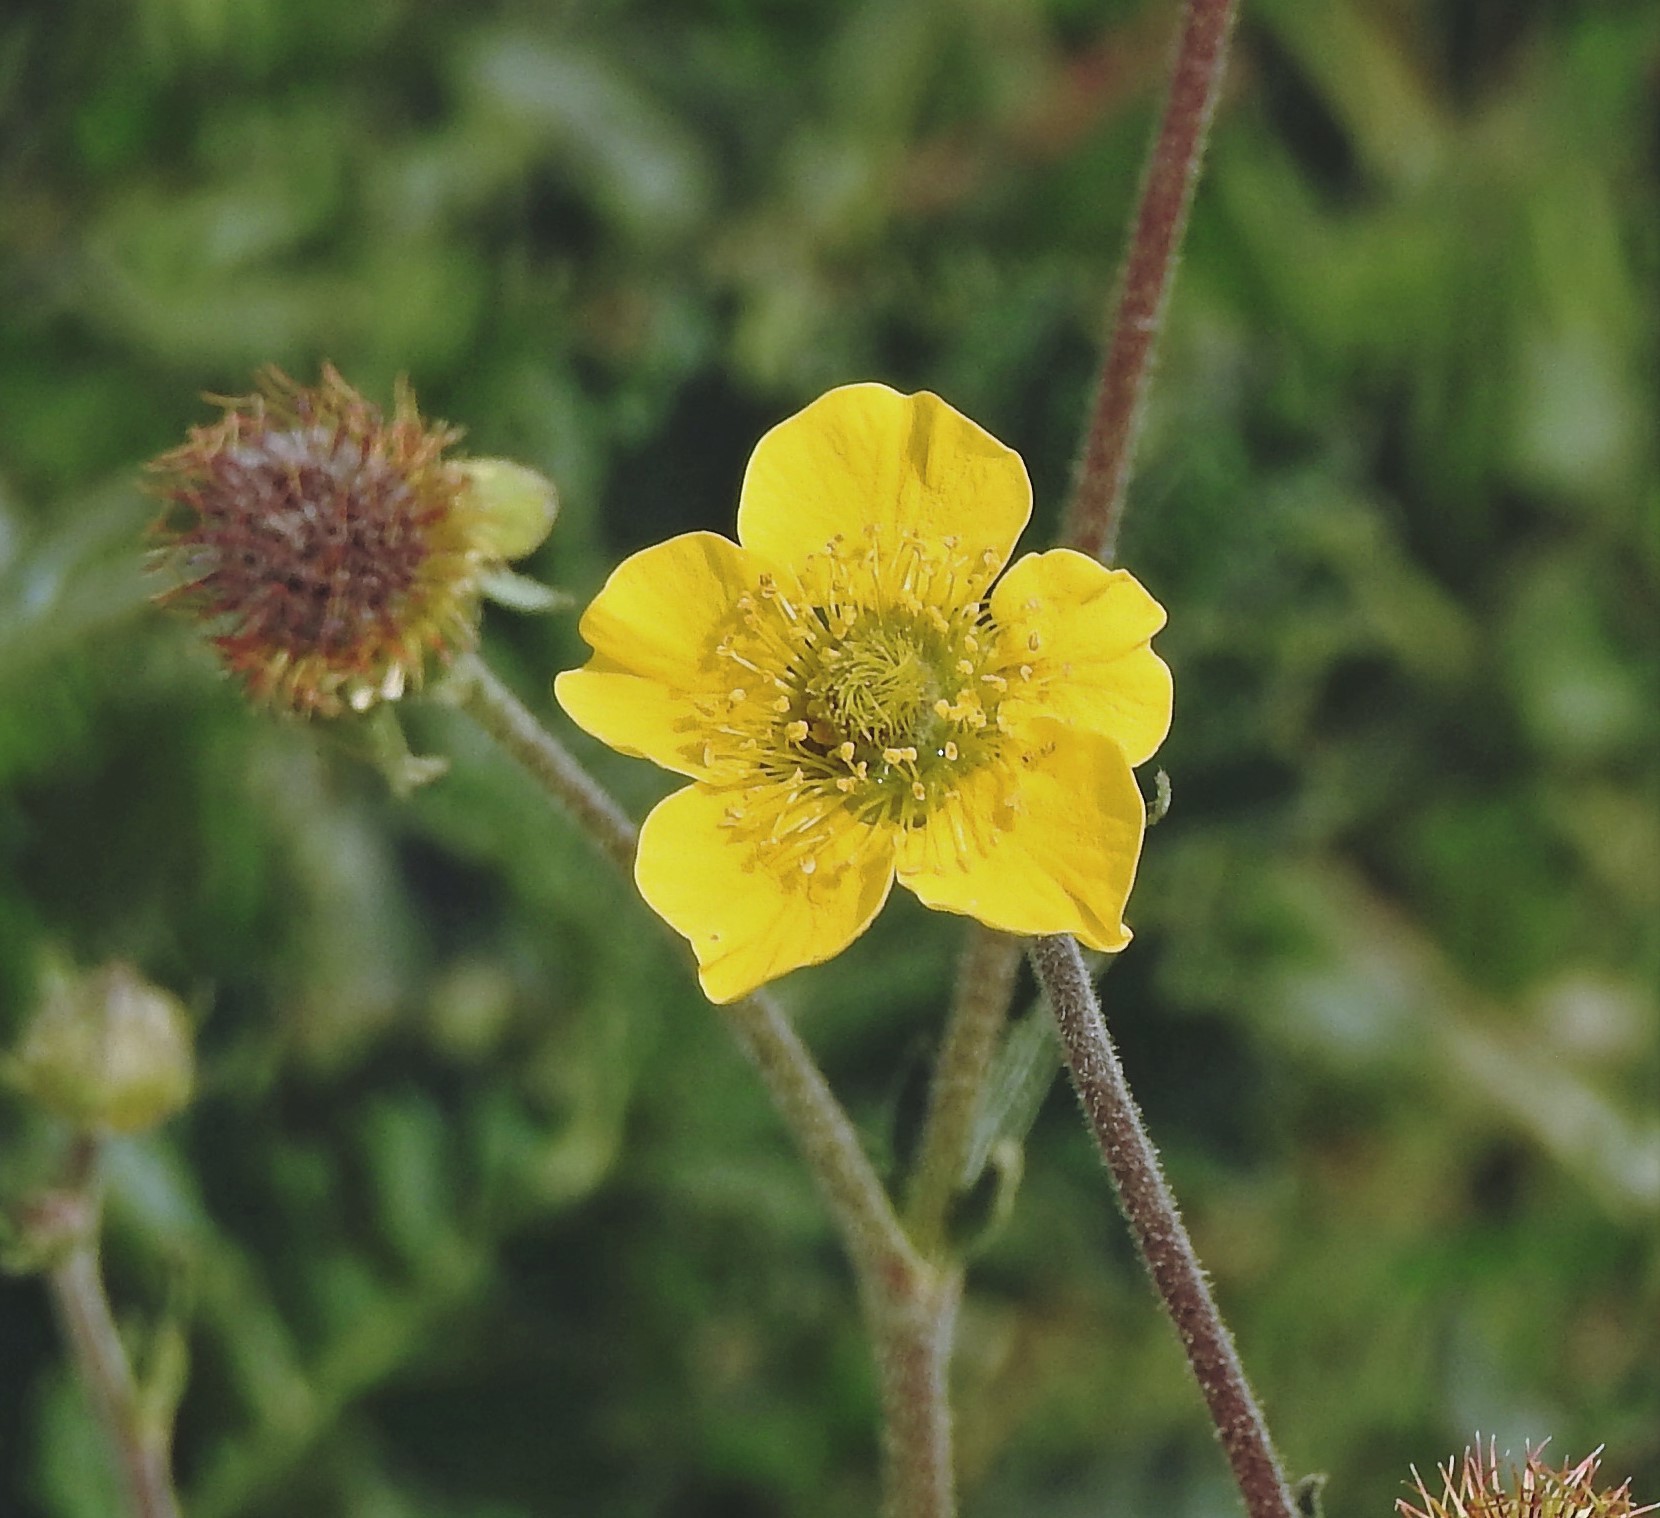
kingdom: Plantae
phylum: Tracheophyta
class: Magnoliopsida
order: Rosales
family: Rosaceae
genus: Geum
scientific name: Geum magellanicum
